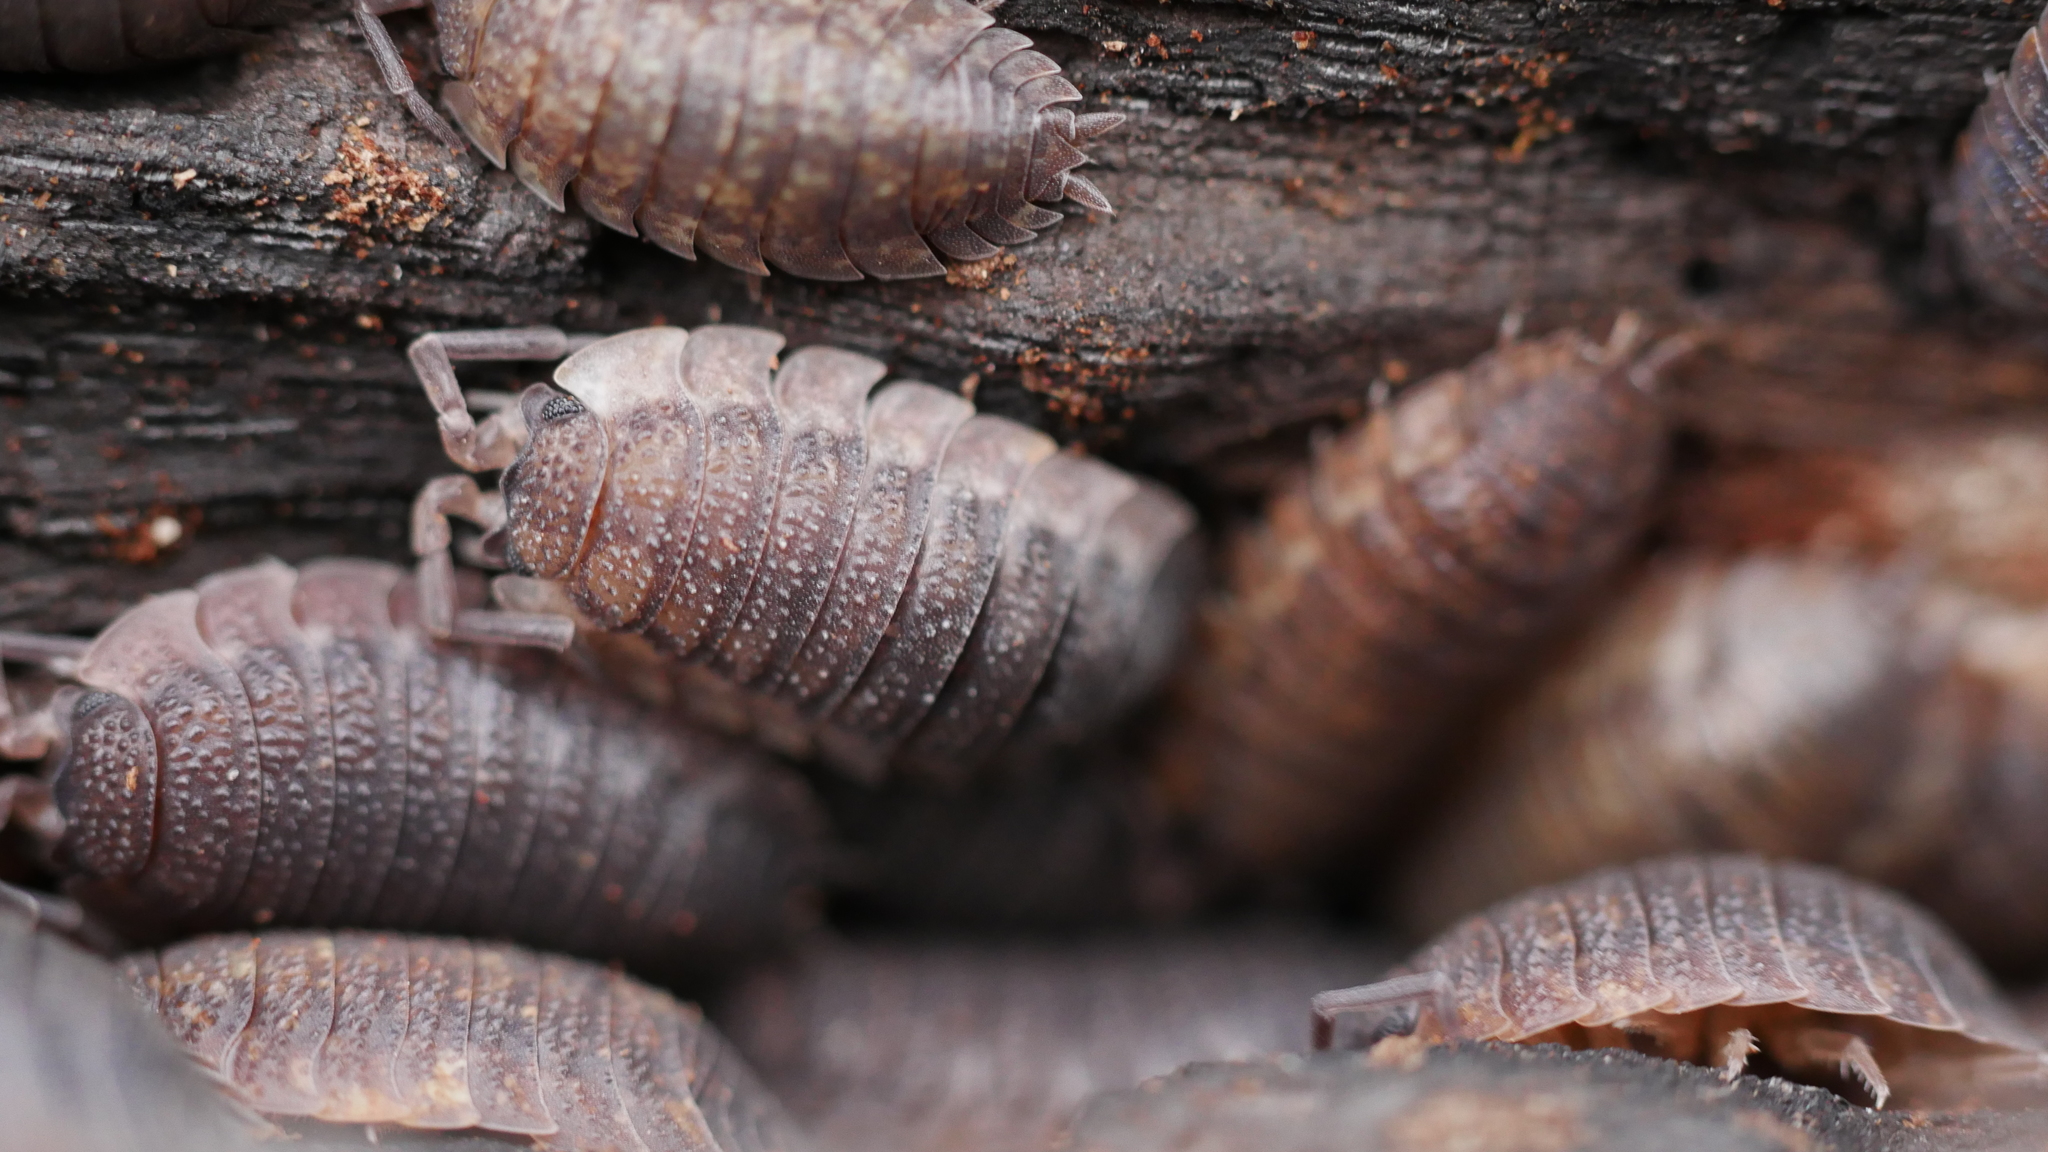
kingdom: Animalia
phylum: Arthropoda
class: Malacostraca
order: Isopoda
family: Porcellionidae
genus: Porcellio
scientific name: Porcellio scaber
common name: Common rough woodlouse
